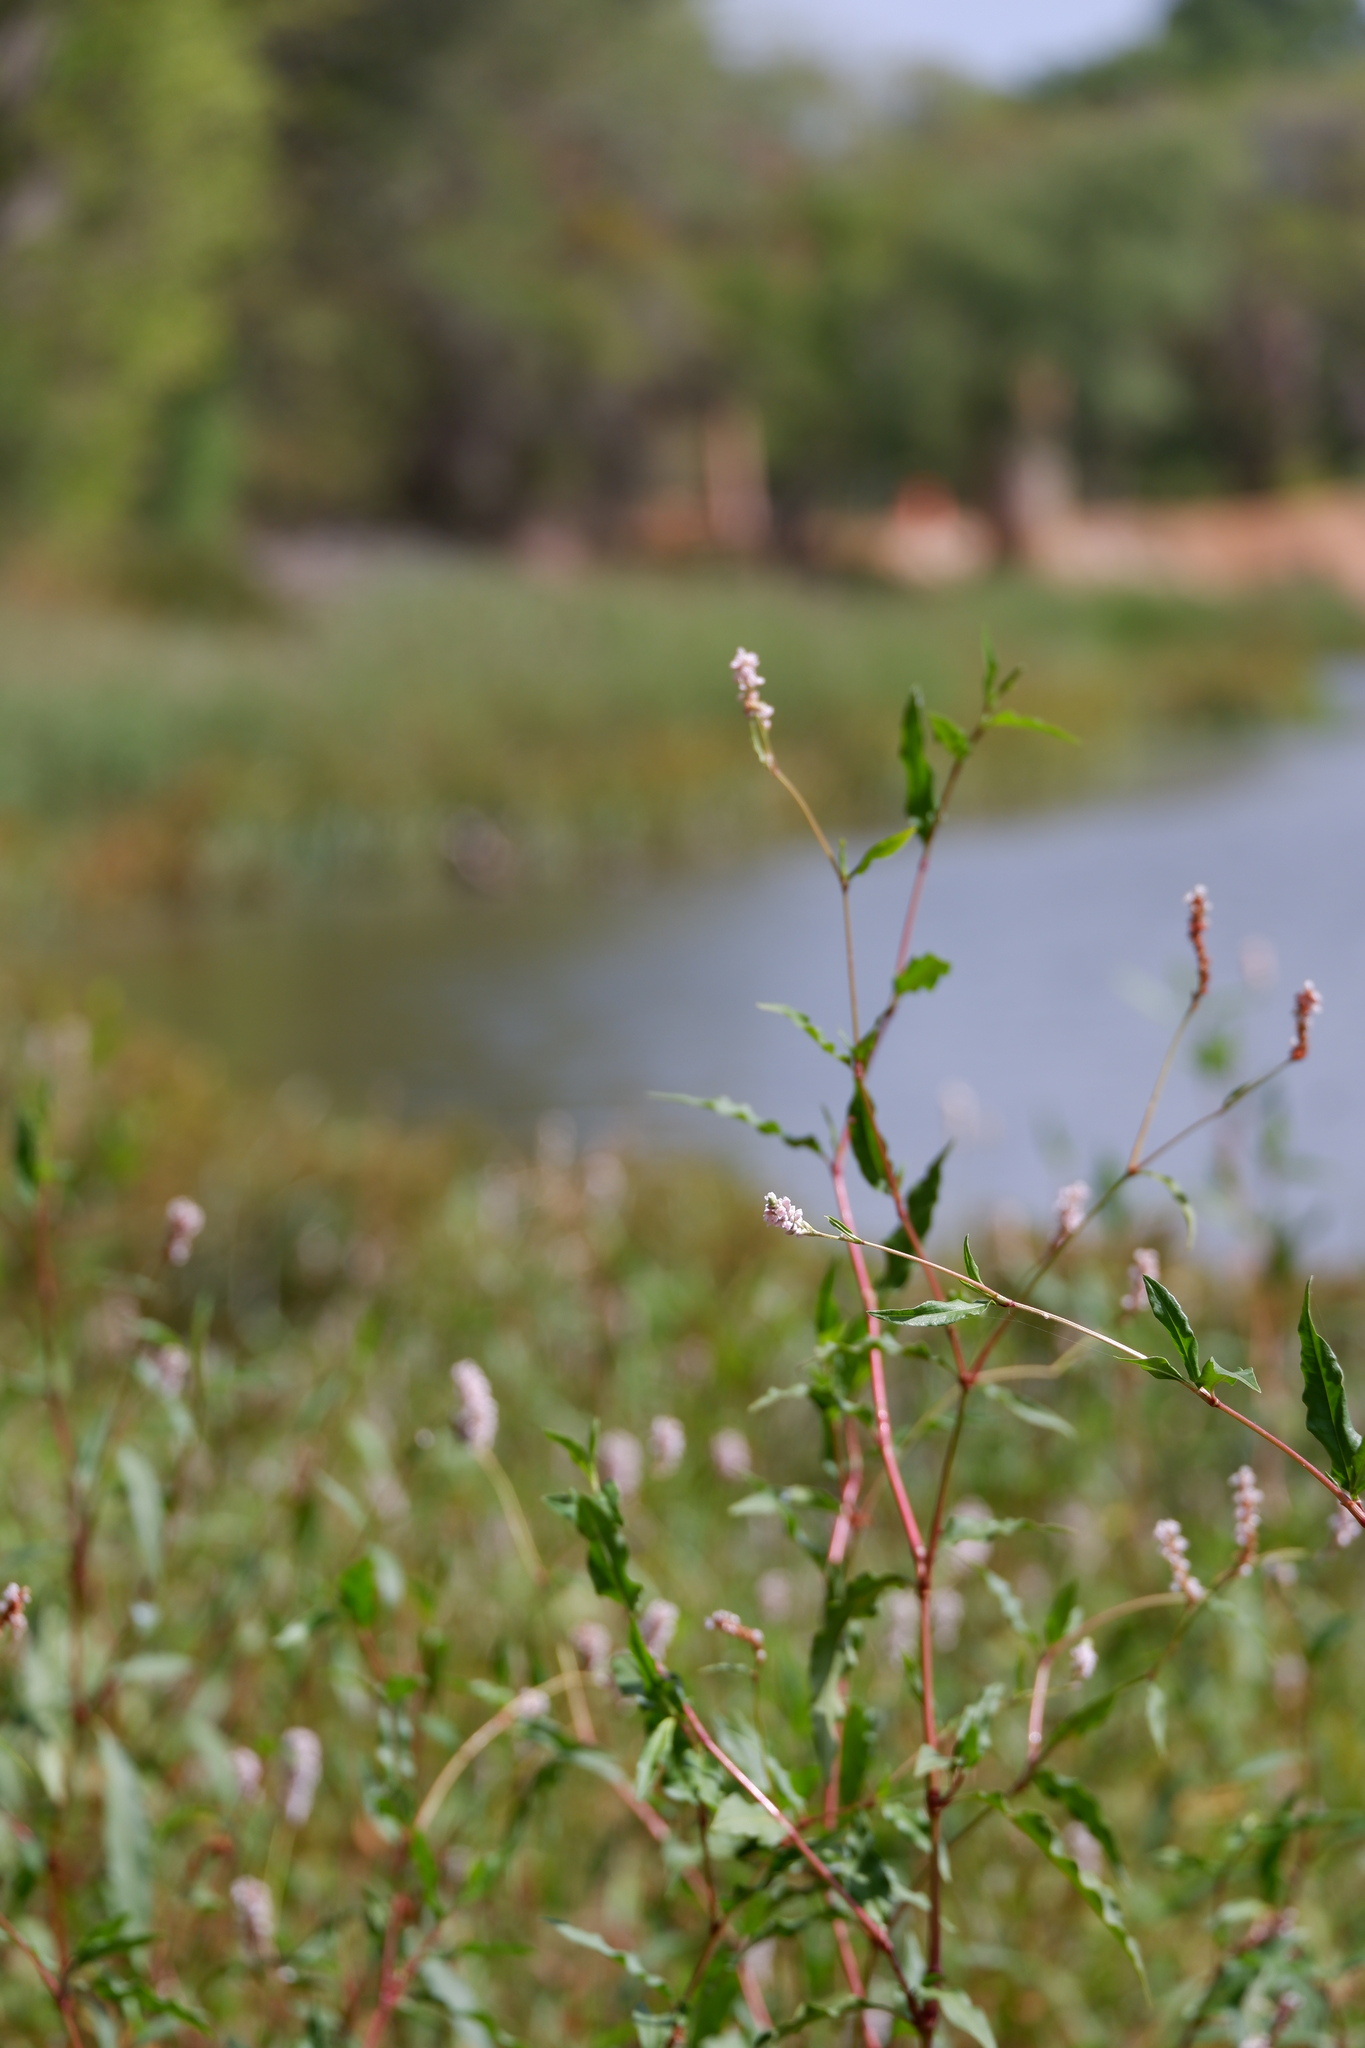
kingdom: Plantae
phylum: Tracheophyta
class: Magnoliopsida
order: Caryophyllales
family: Polygonaceae
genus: Persicaria
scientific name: Persicaria pensylvanica
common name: Pinkweed
